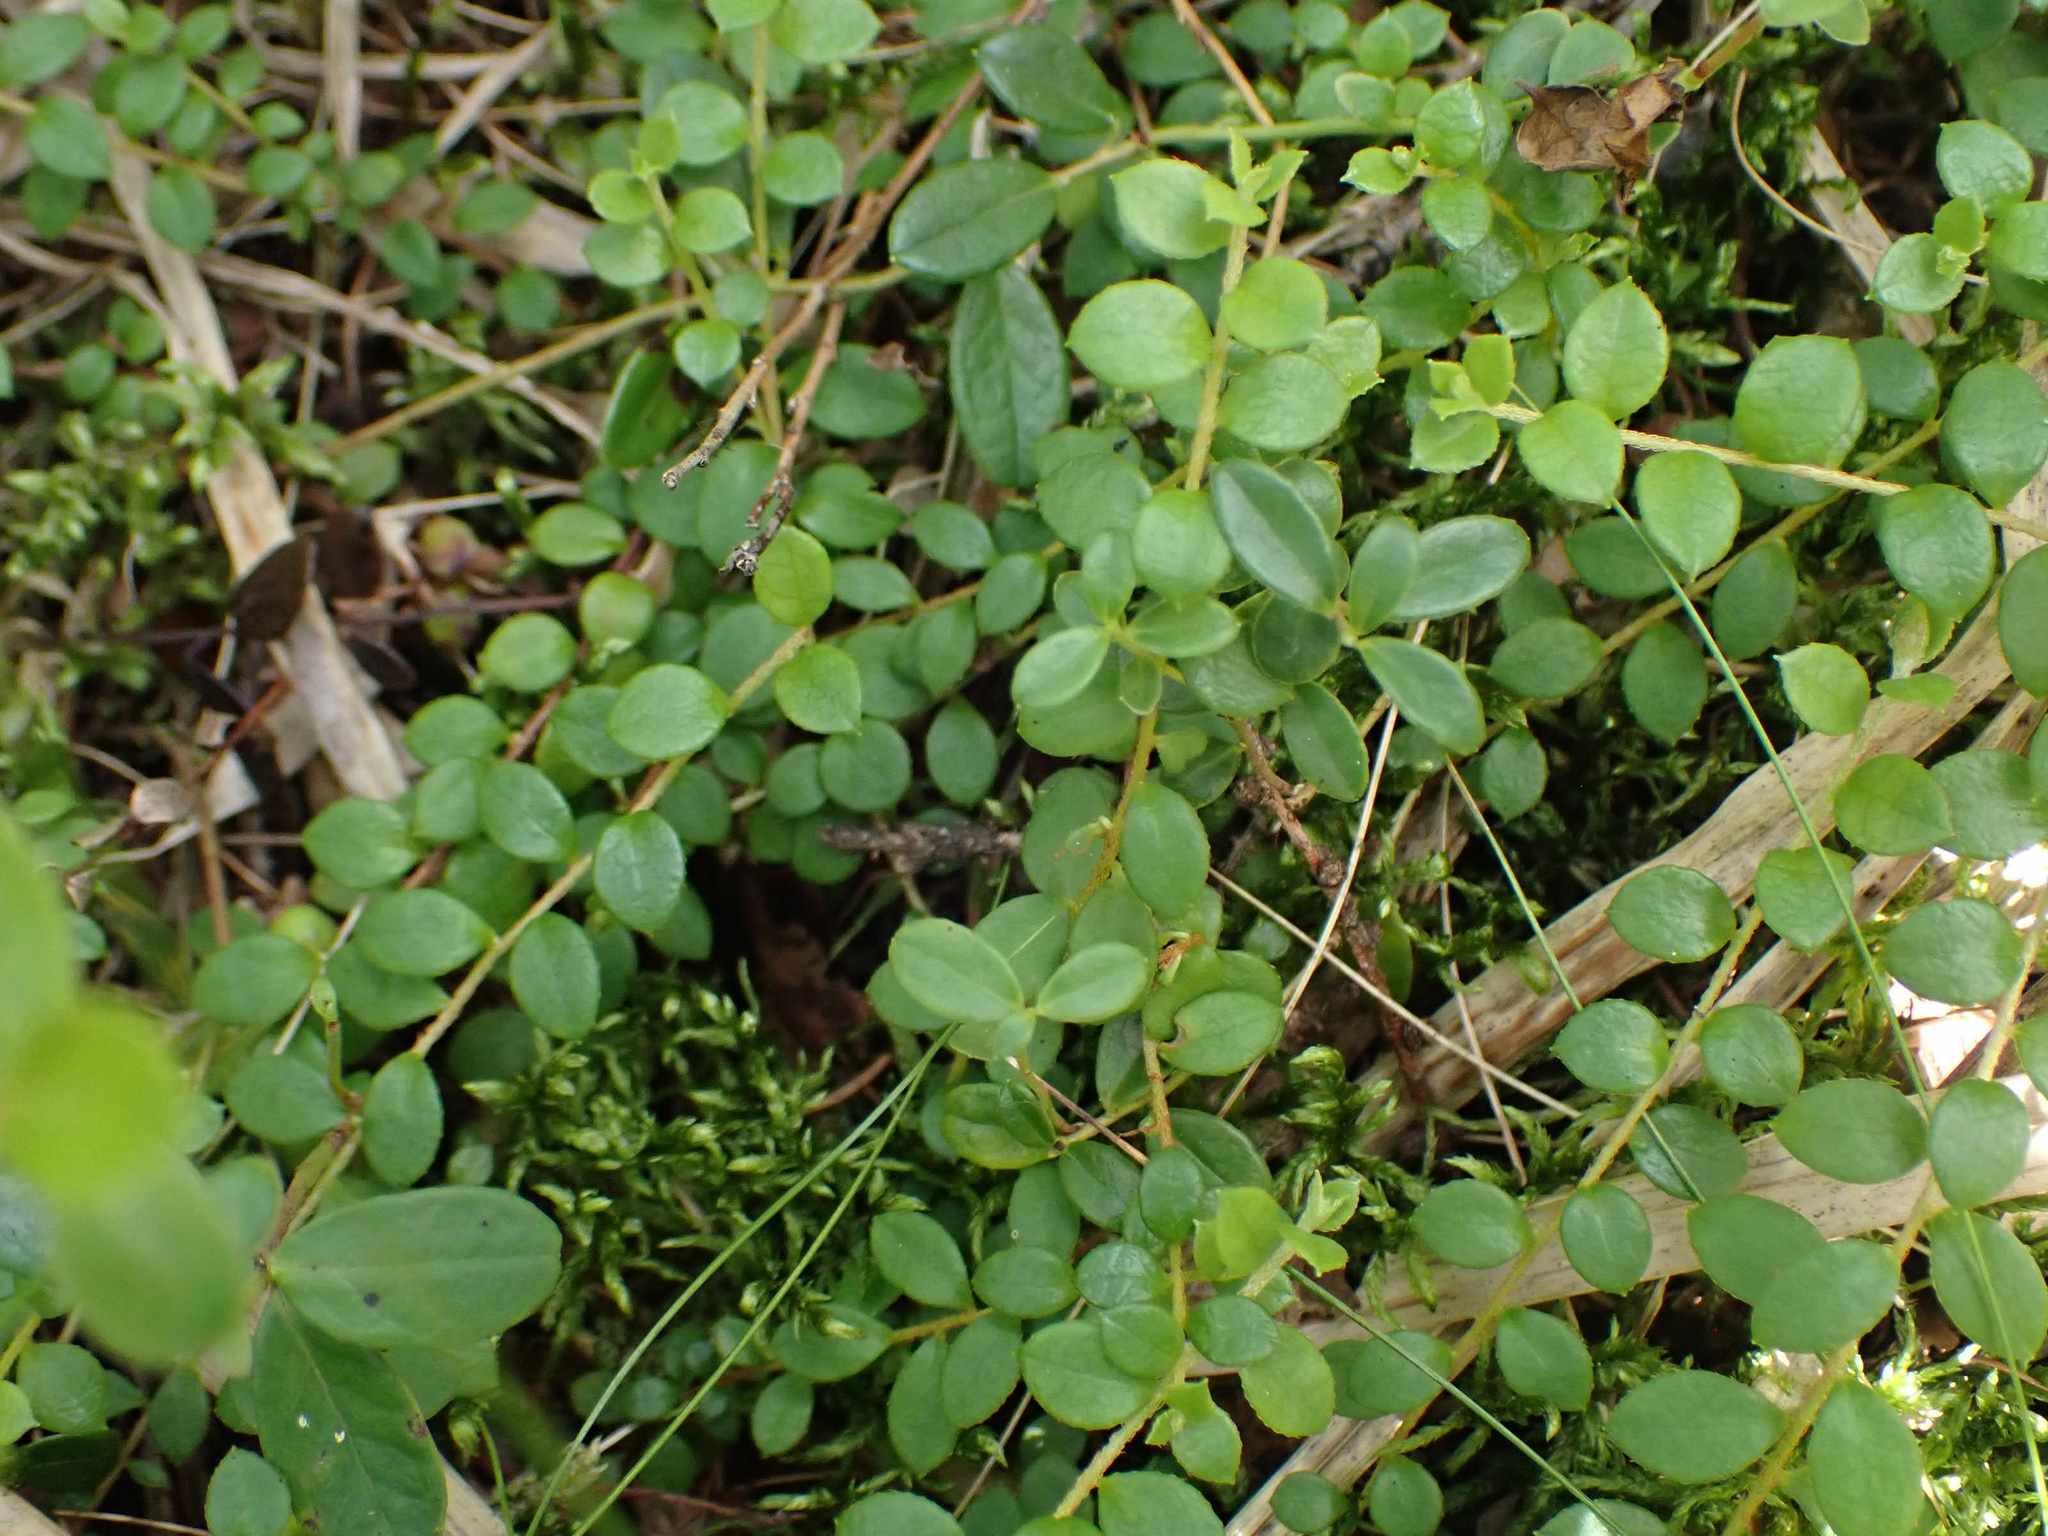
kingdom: Plantae
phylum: Tracheophyta
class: Magnoliopsida
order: Ericales
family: Ericaceae
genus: Gaultheria
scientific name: Gaultheria hispidula
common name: Cancer wintergreen
